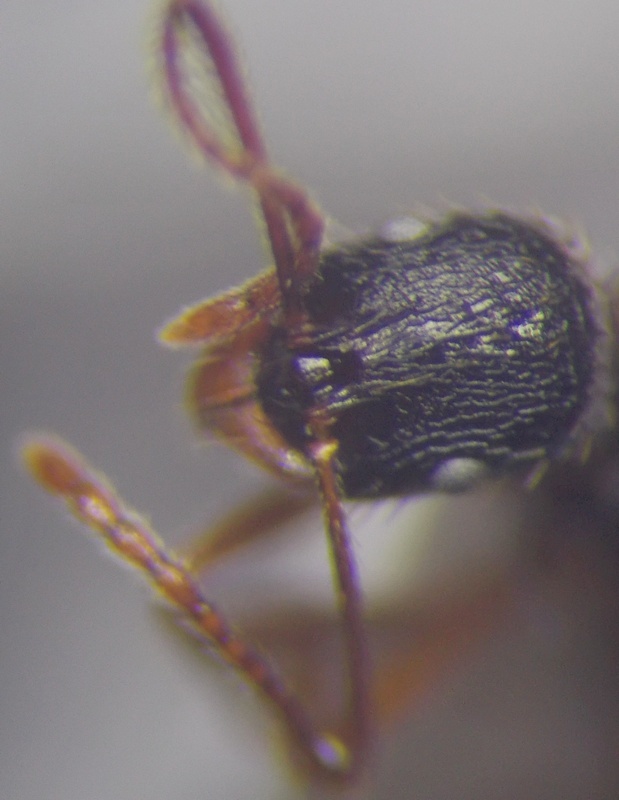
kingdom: Animalia
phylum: Arthropoda
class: Insecta
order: Hymenoptera
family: Formicidae
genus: Aphaenogaster
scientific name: Aphaenogaster
